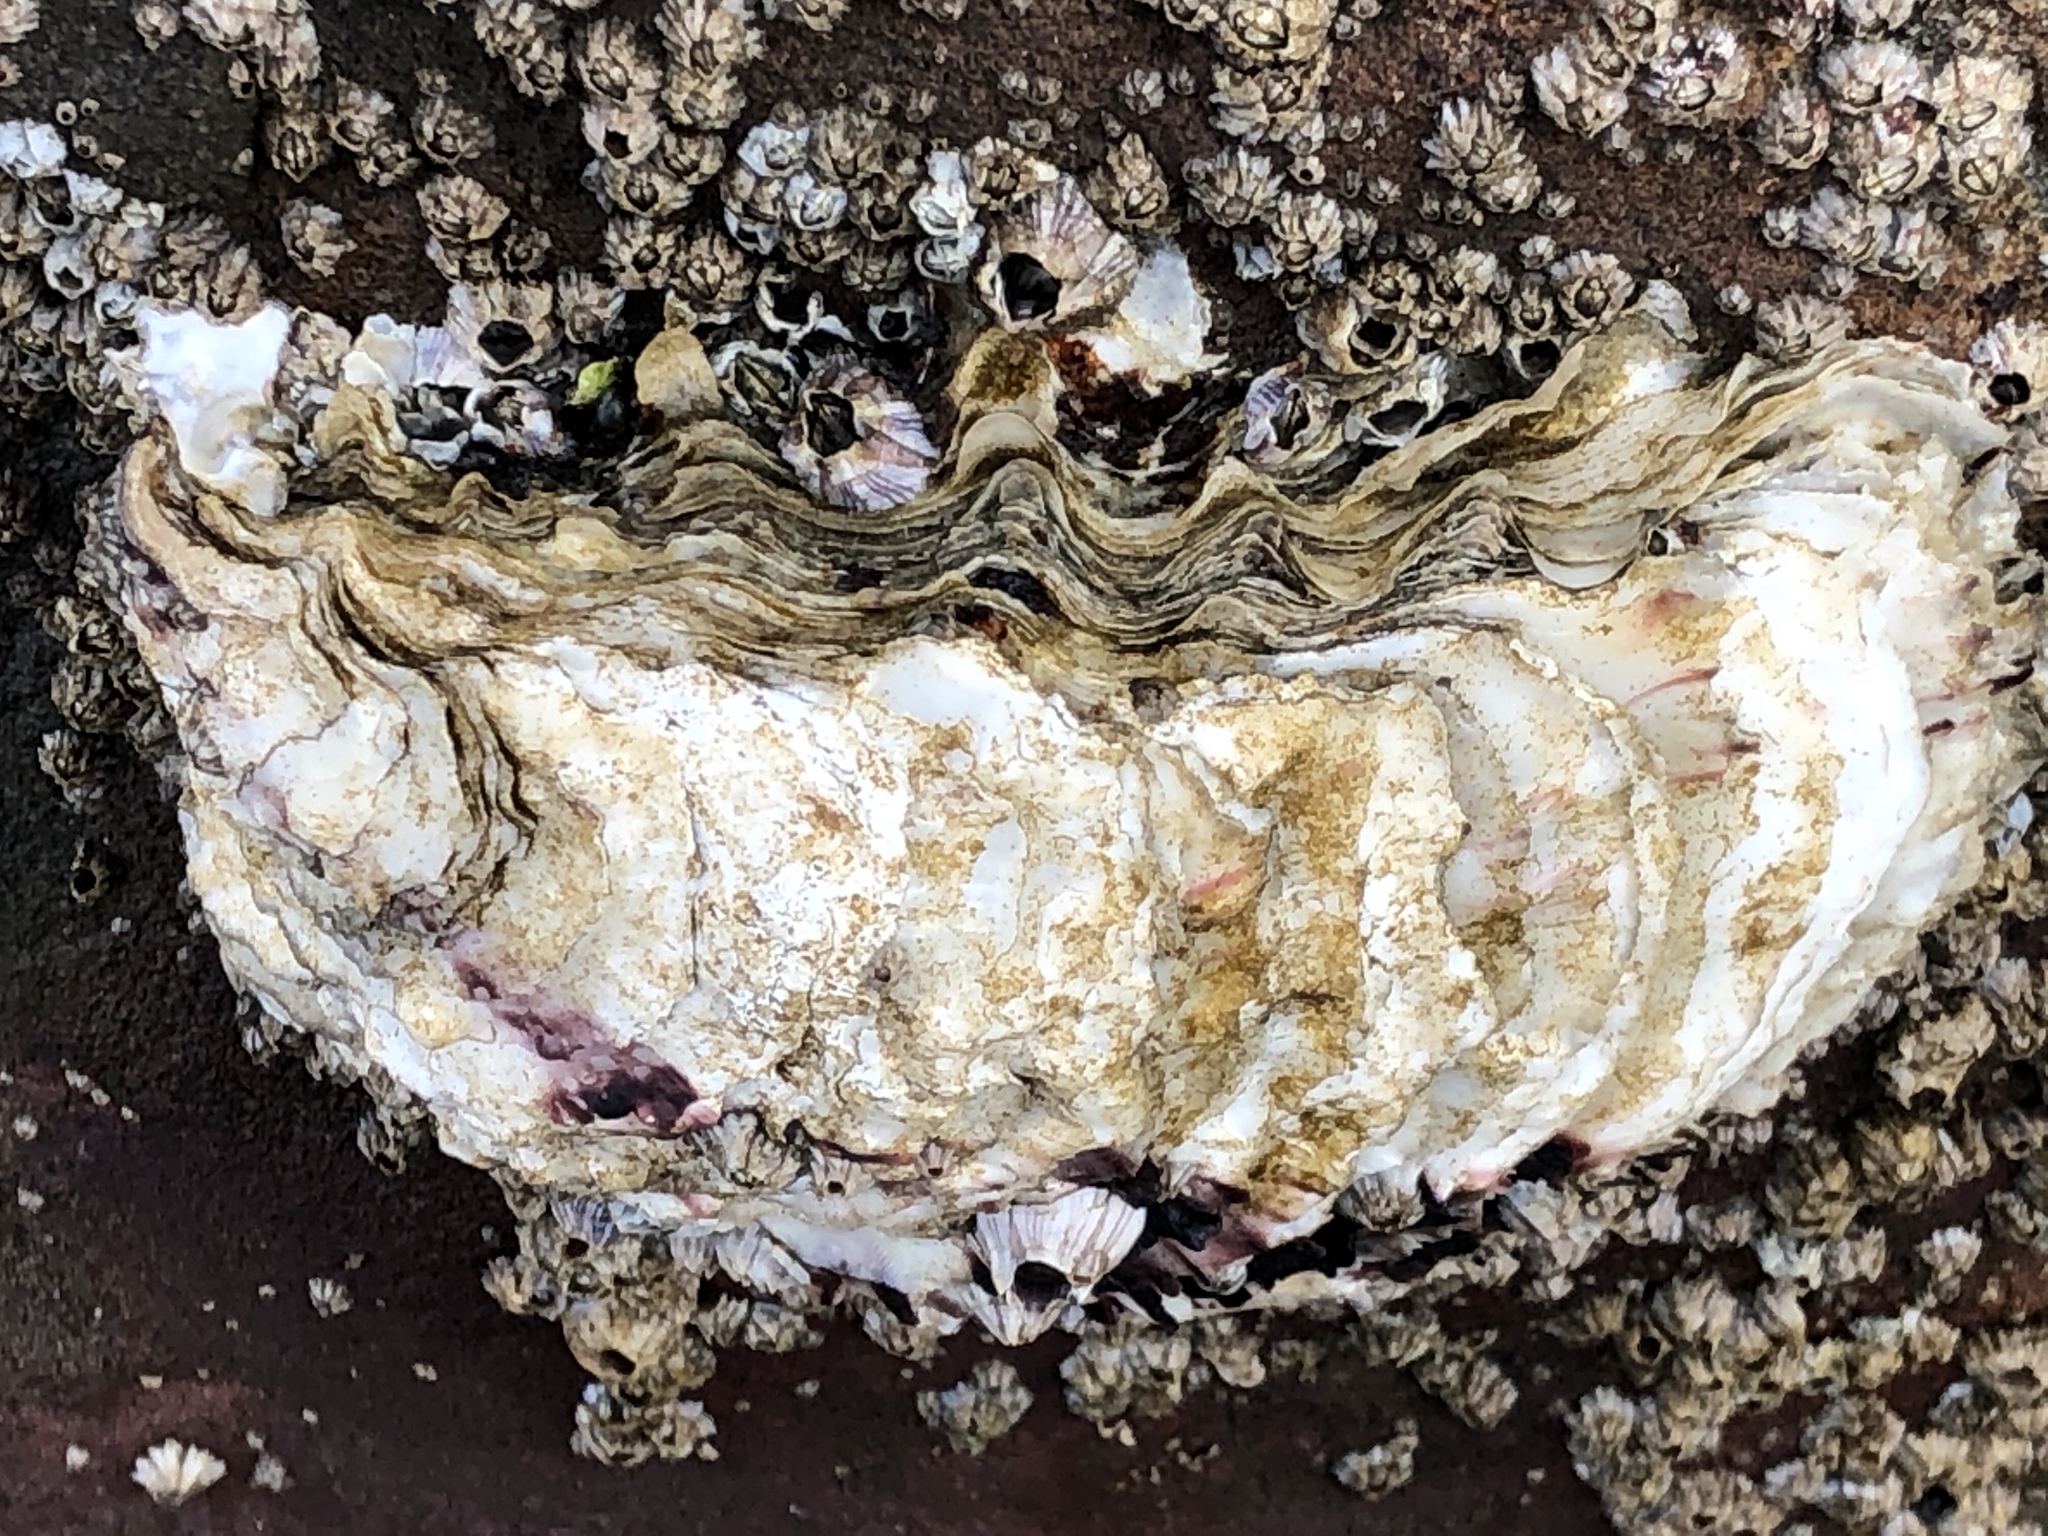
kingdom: Animalia
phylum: Mollusca
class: Bivalvia
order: Ostreida
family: Ostreidae
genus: Magallana
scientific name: Magallana gigas
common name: Pacific oyster
